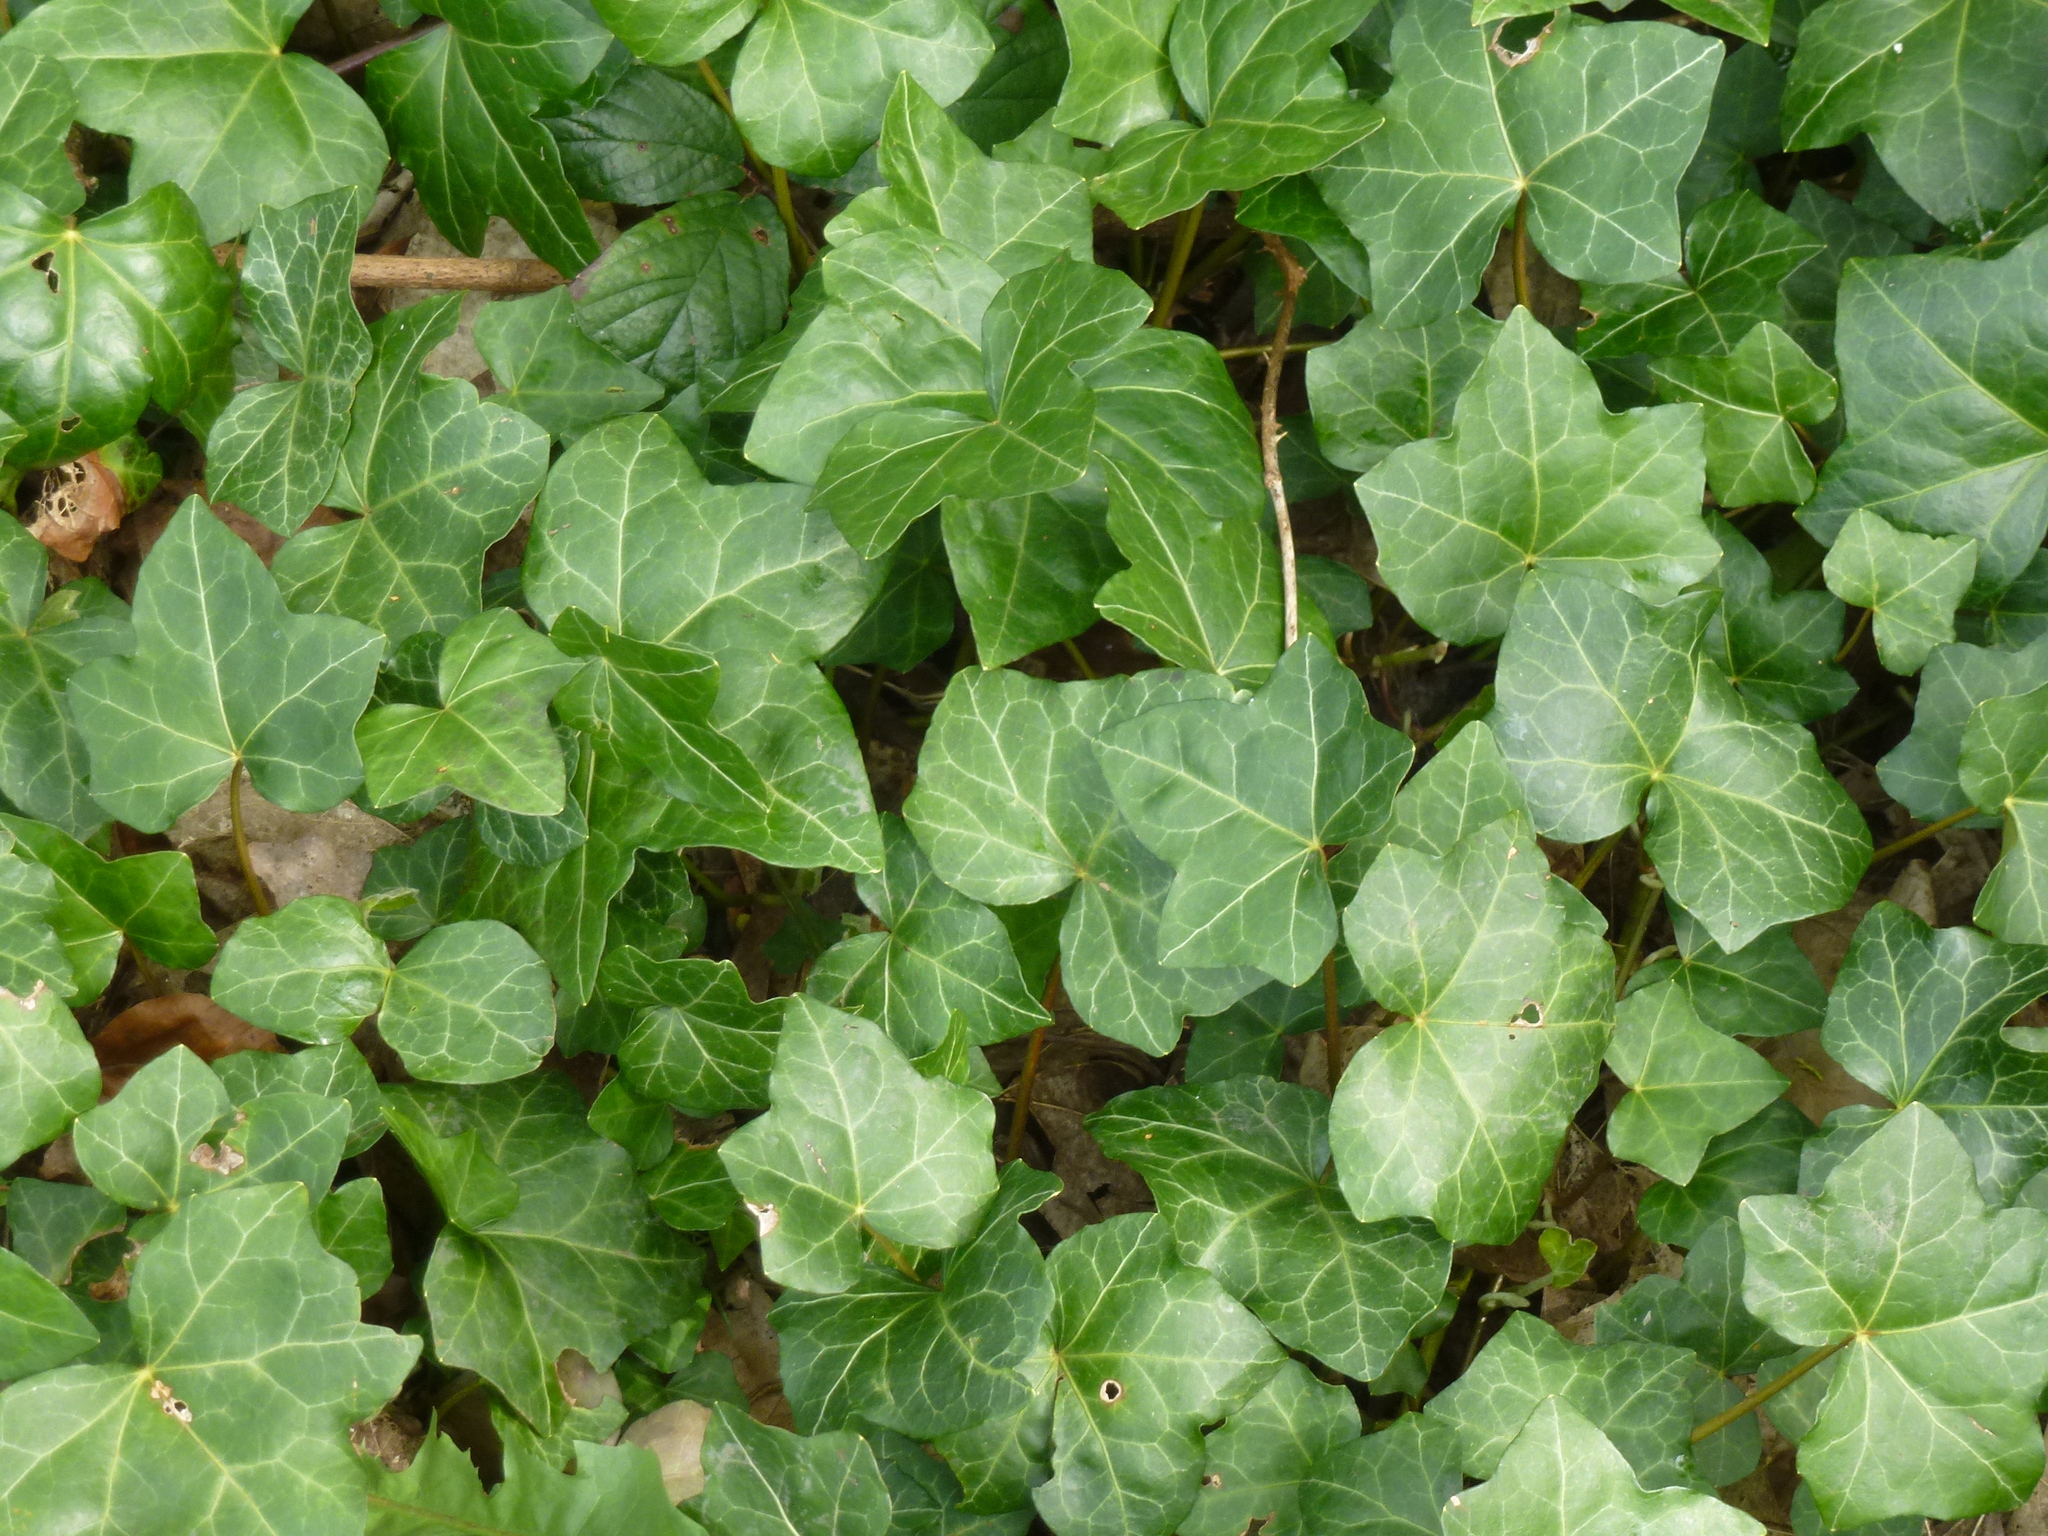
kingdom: Plantae
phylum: Tracheophyta
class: Magnoliopsida
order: Apiales
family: Araliaceae
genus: Hedera
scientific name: Hedera helix
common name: Ivy
